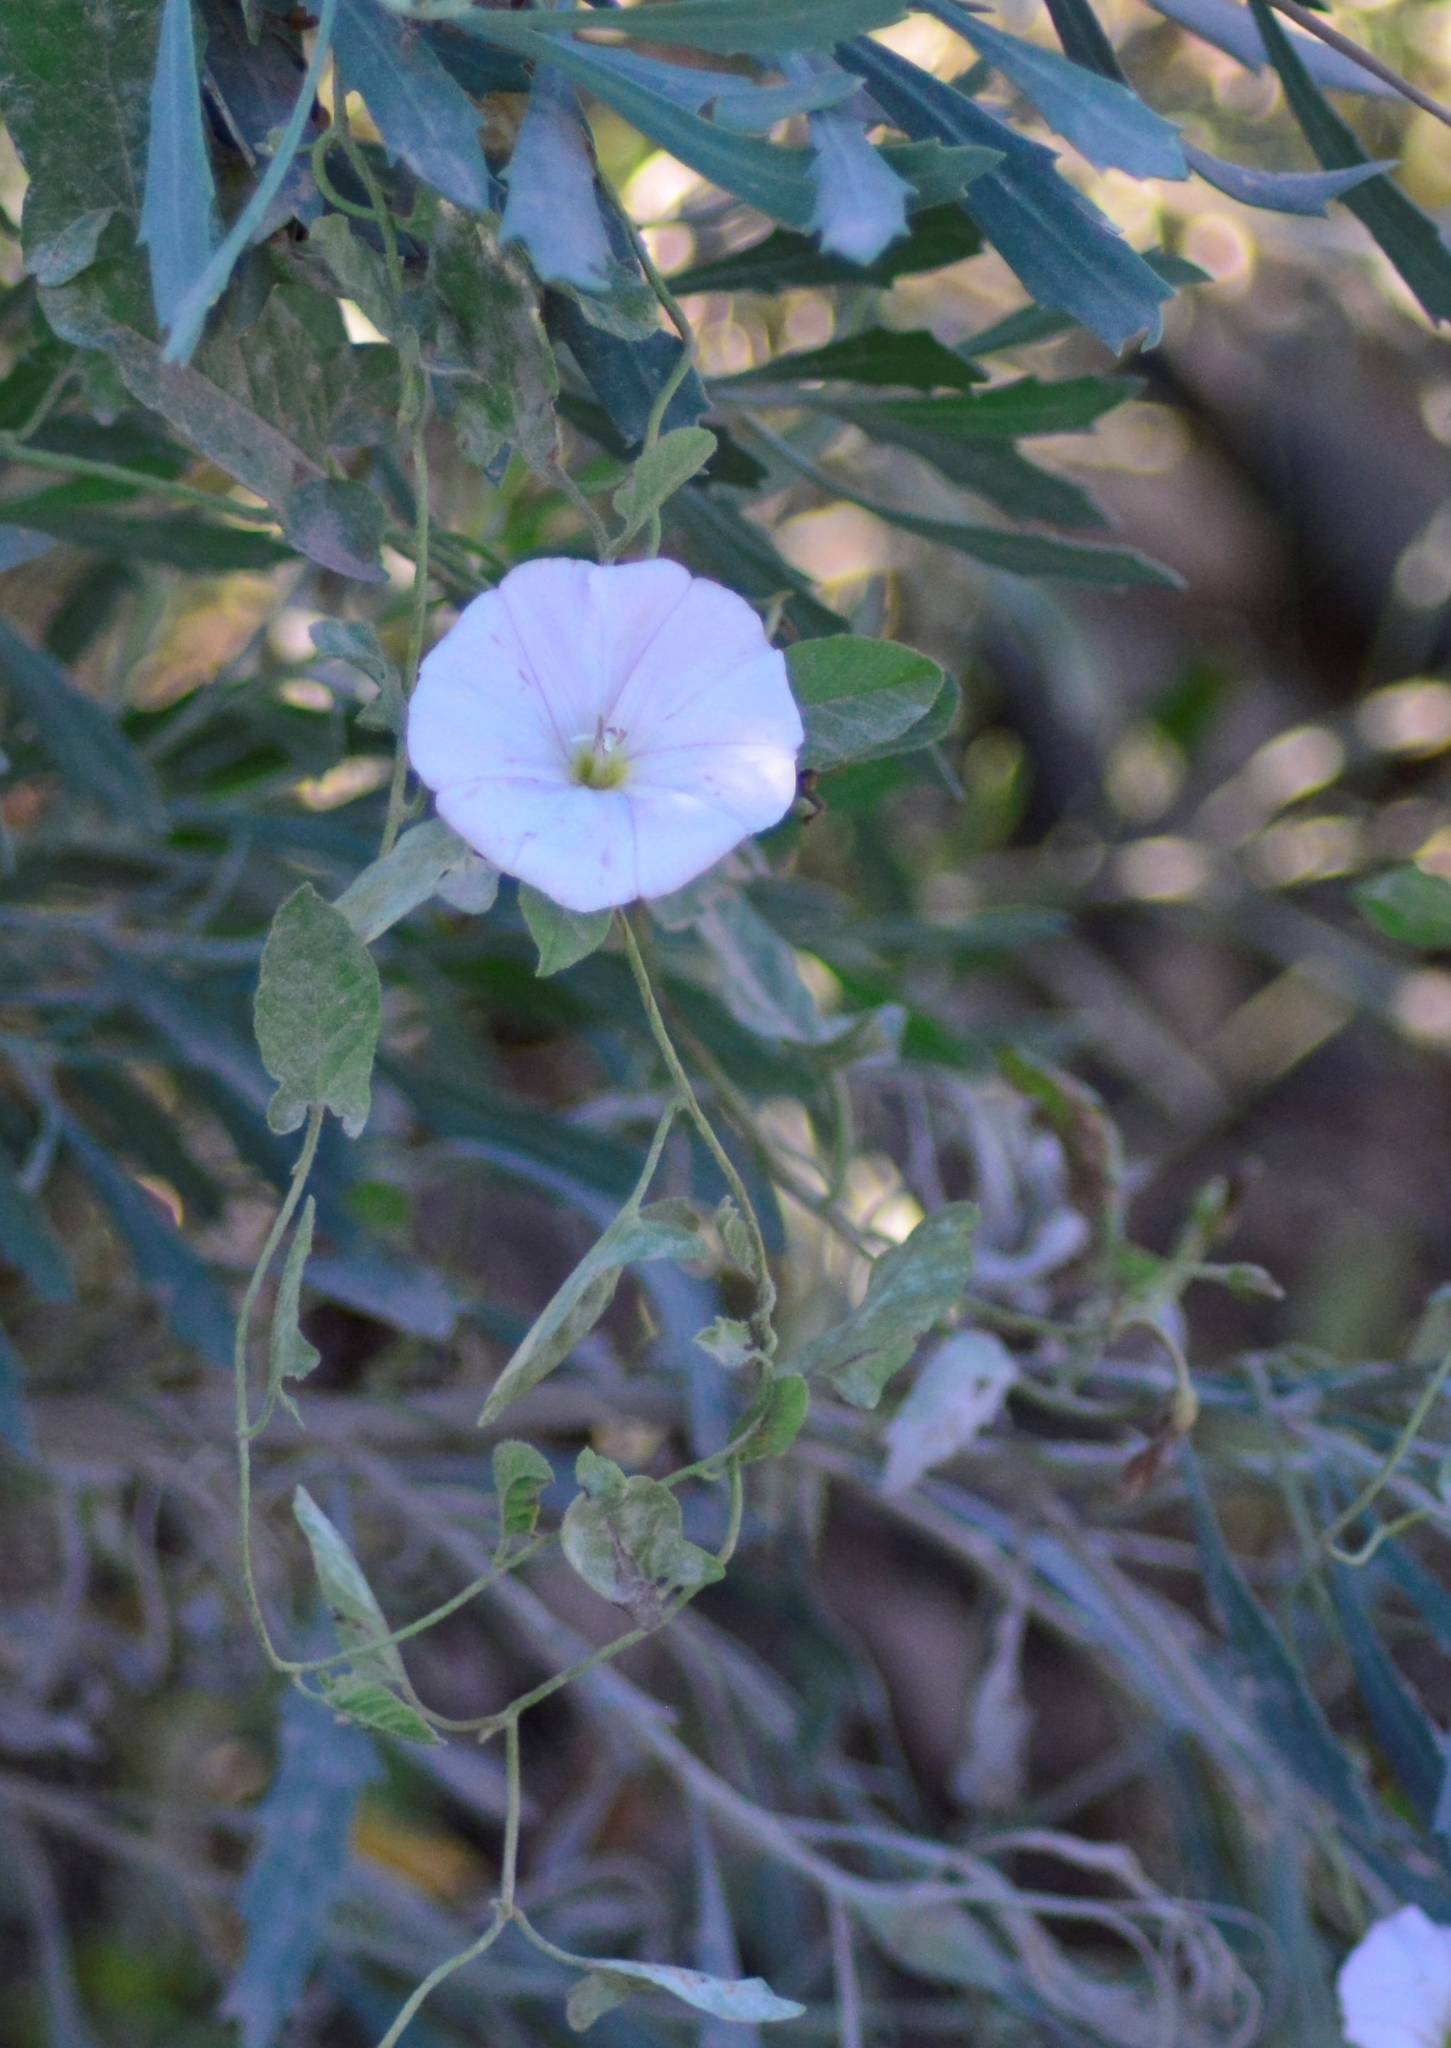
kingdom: Plantae
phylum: Tracheophyta
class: Magnoliopsida
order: Solanales
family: Convolvulaceae
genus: Convolvulus
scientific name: Convolvulus arvensis
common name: Field bindweed
